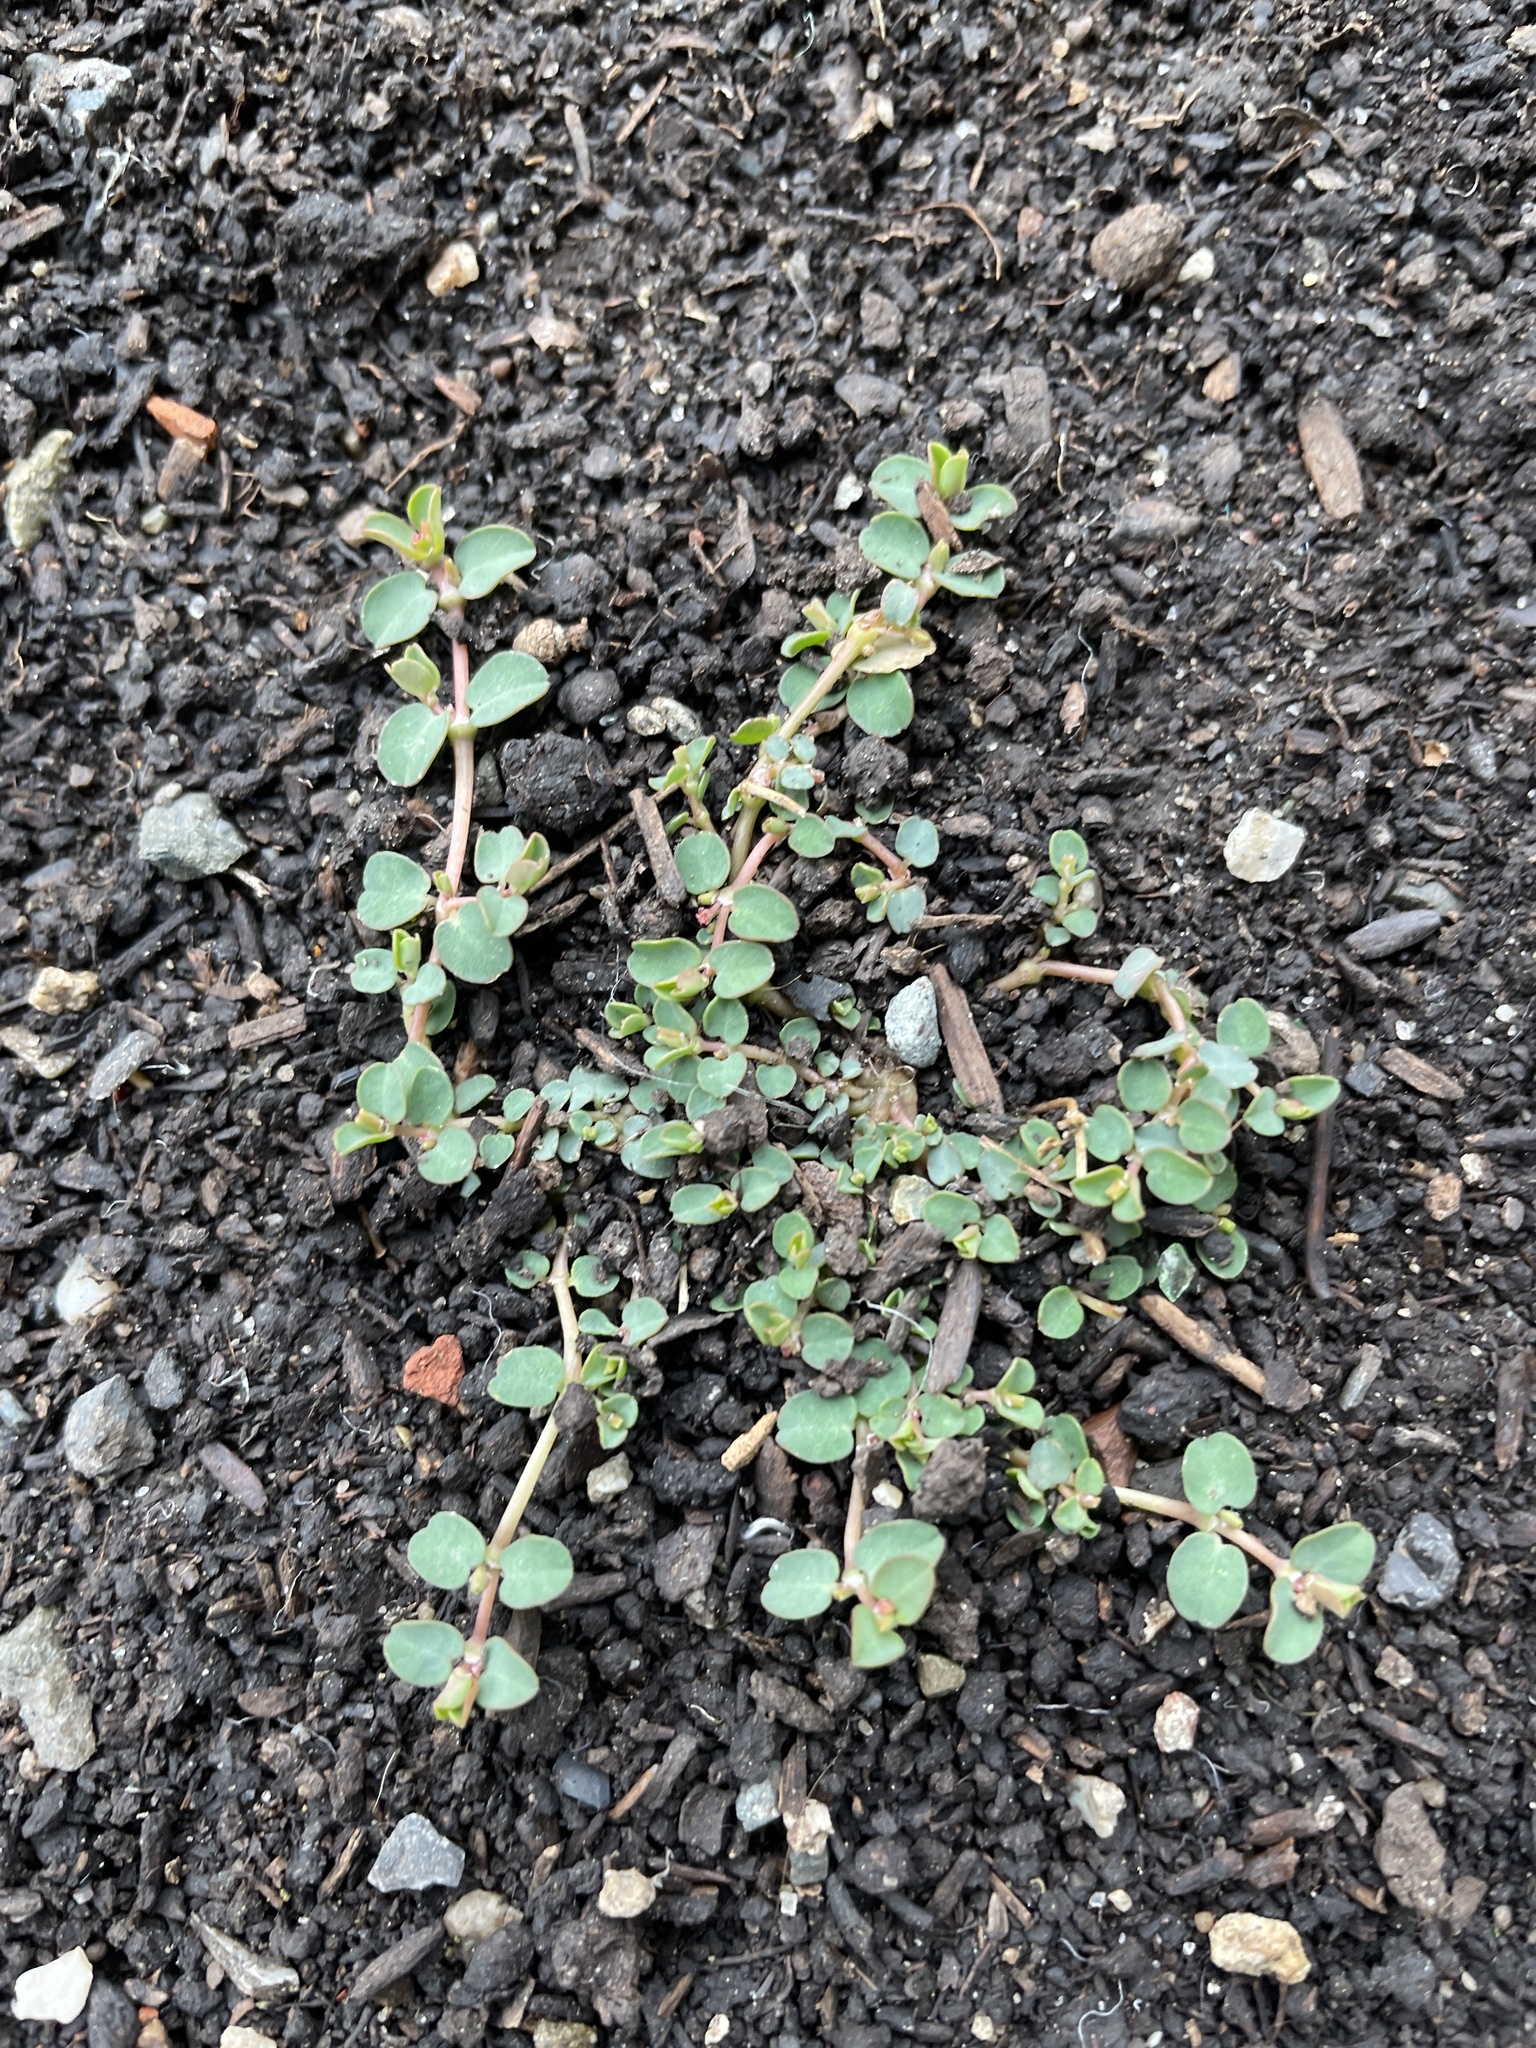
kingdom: Plantae
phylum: Tracheophyta
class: Magnoliopsida
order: Malpighiales
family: Euphorbiaceae
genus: Euphorbia
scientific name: Euphorbia serpens
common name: Matted sandmat
